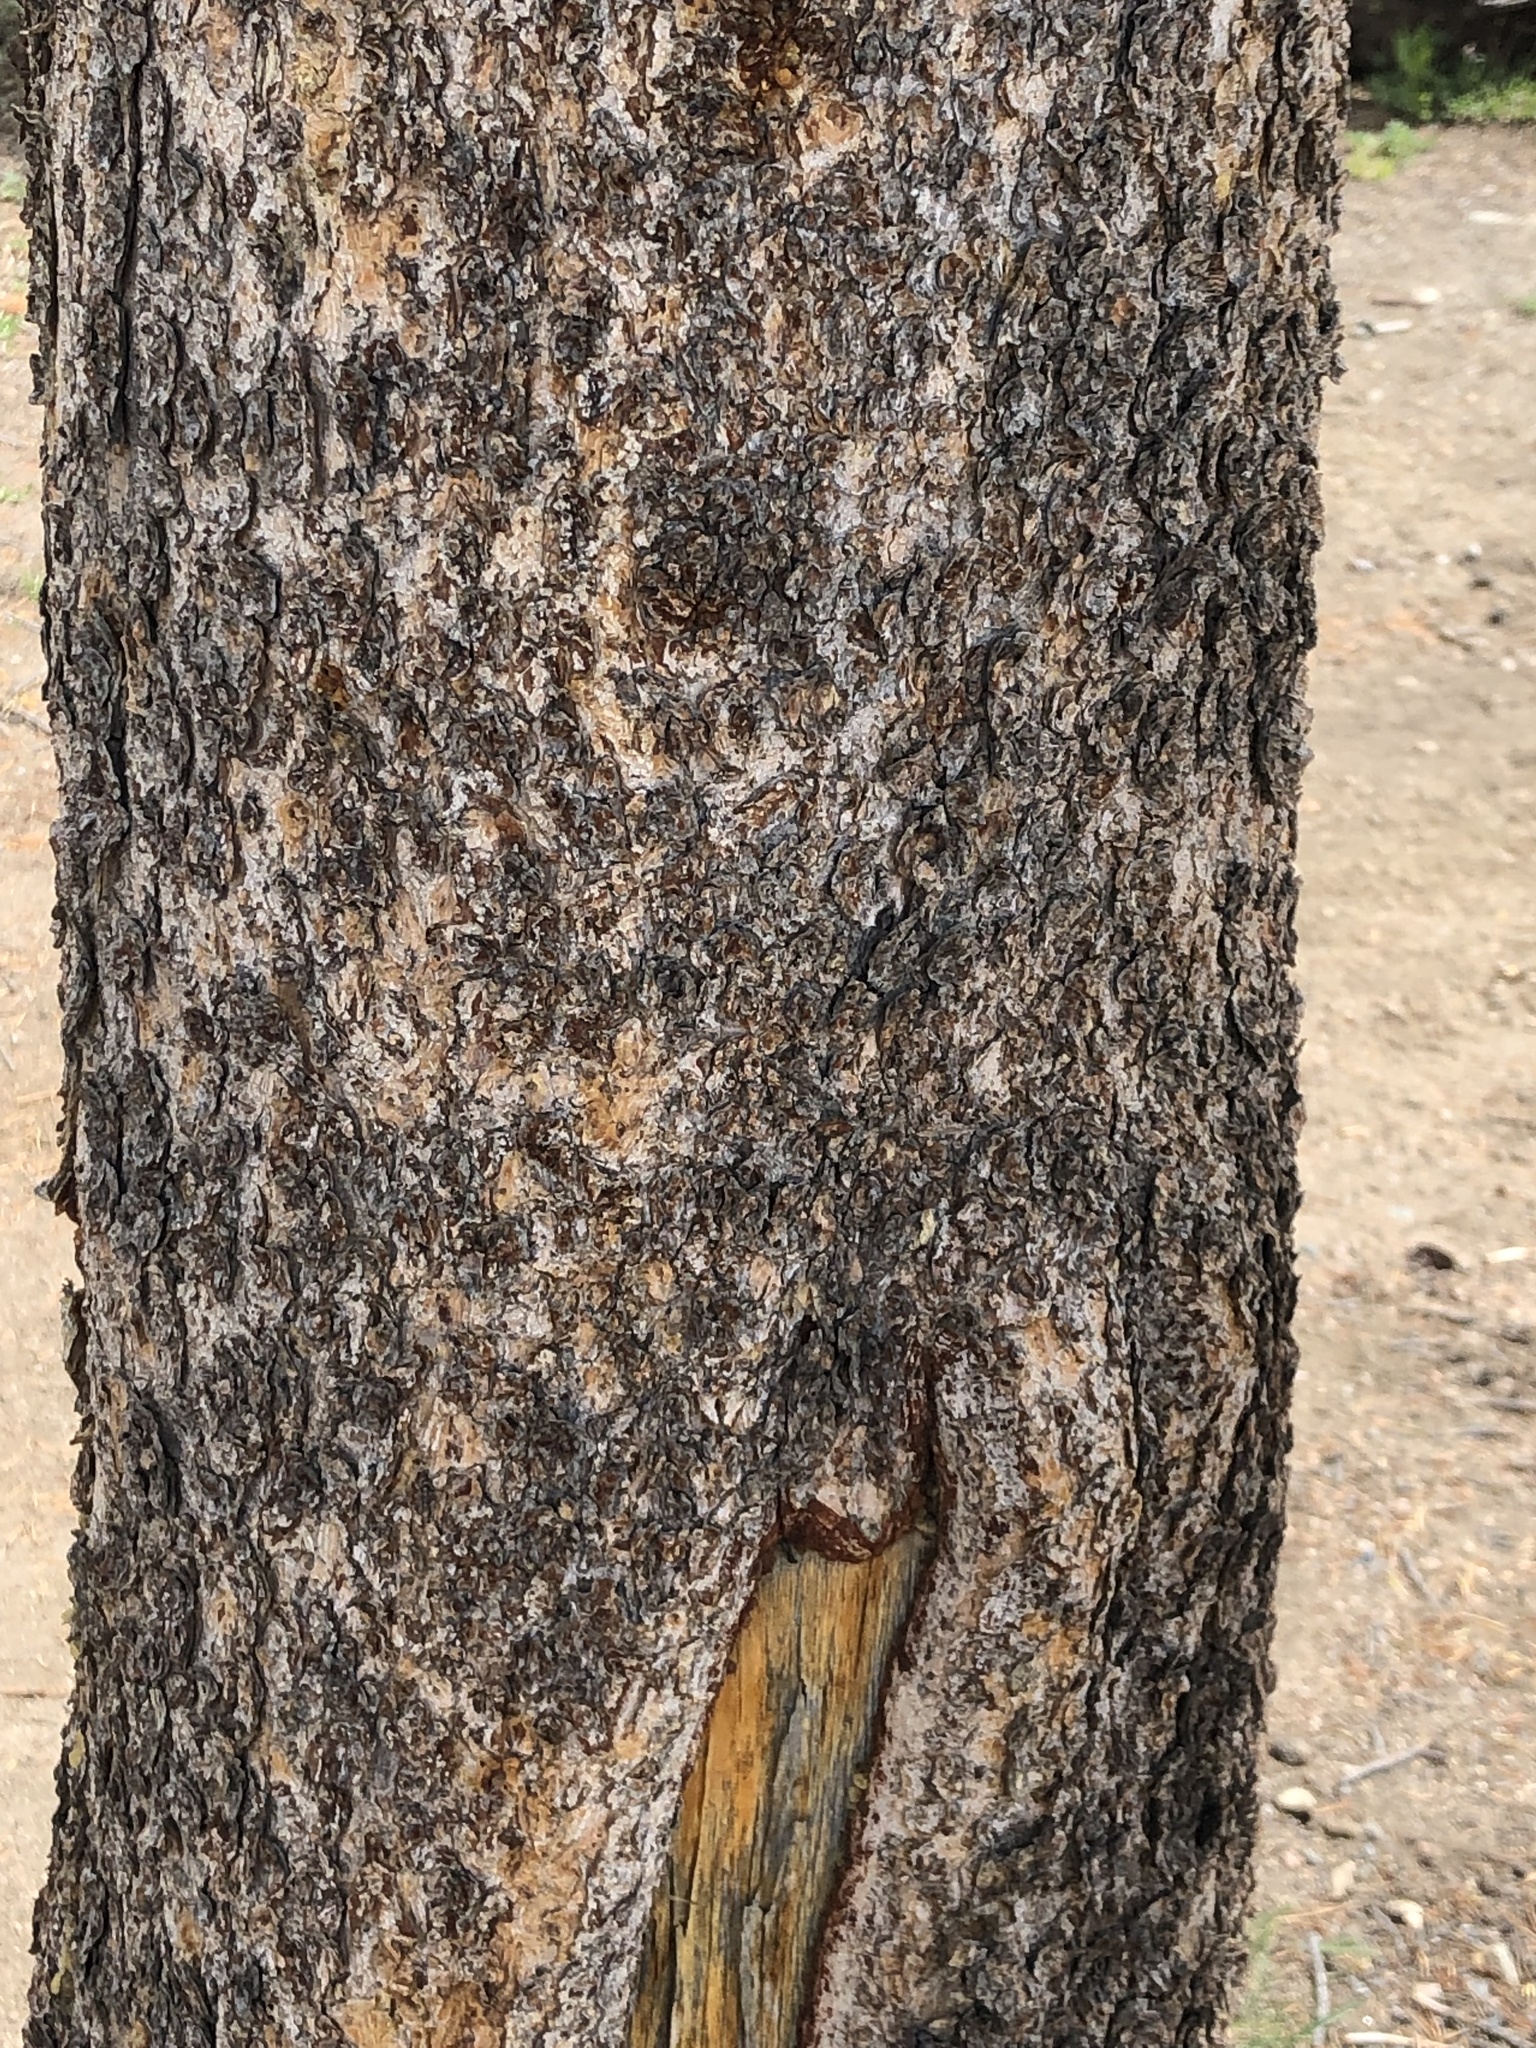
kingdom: Plantae
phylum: Tracheophyta
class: Pinopsida
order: Pinales
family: Pinaceae
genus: Pinus
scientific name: Pinus contorta
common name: Lodgepole pine
